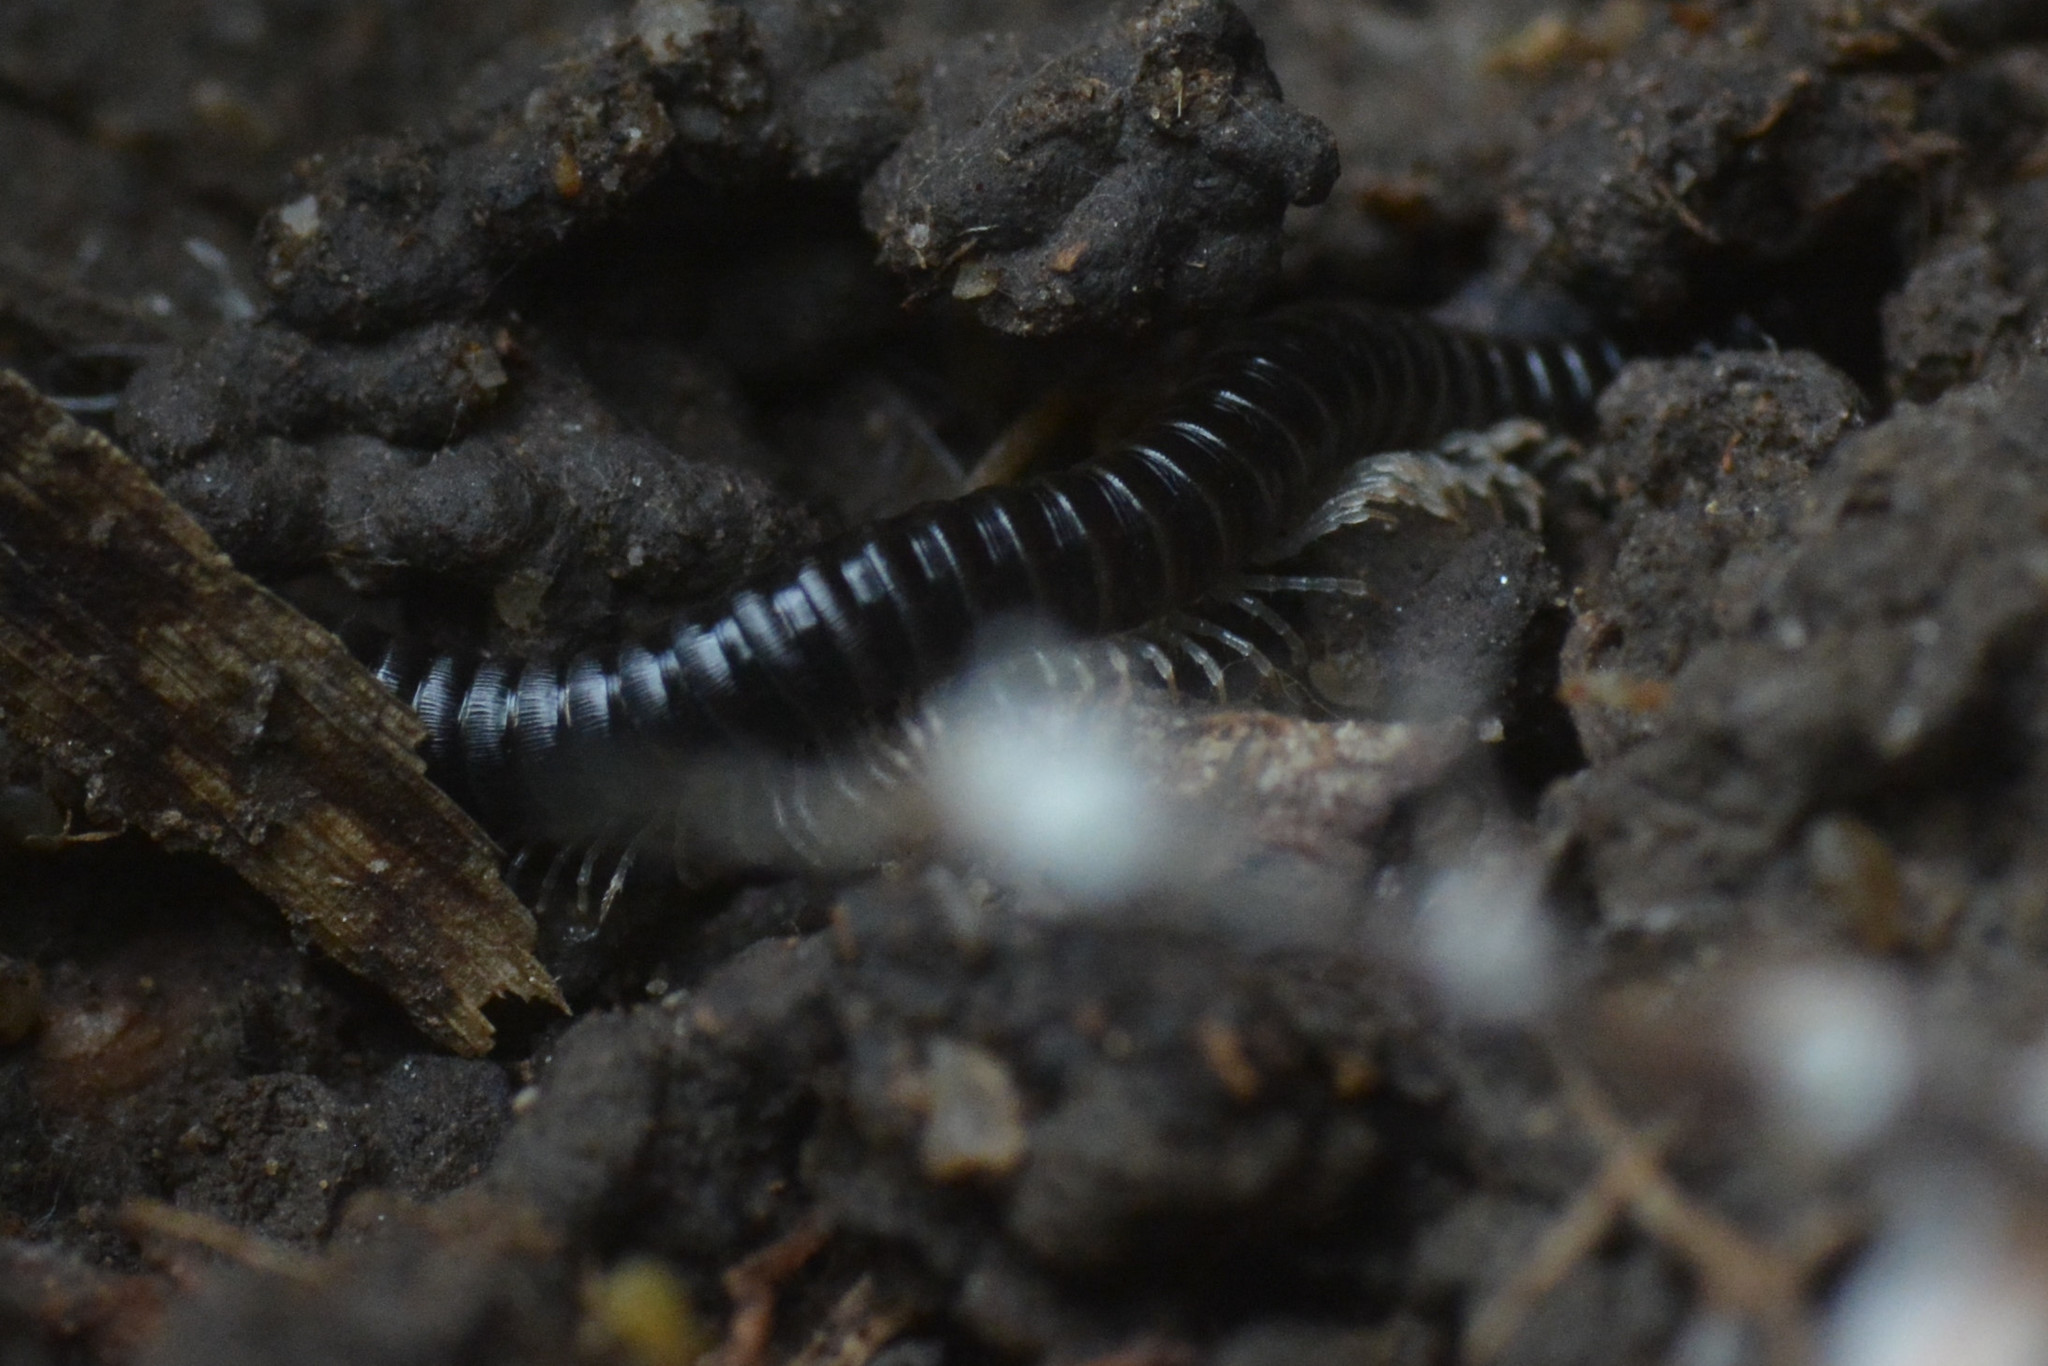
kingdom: Animalia
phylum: Arthropoda
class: Diplopoda
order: Julida
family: Julidae
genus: Tachypodoiulus
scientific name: Tachypodoiulus niger
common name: White-legged snake millipede
